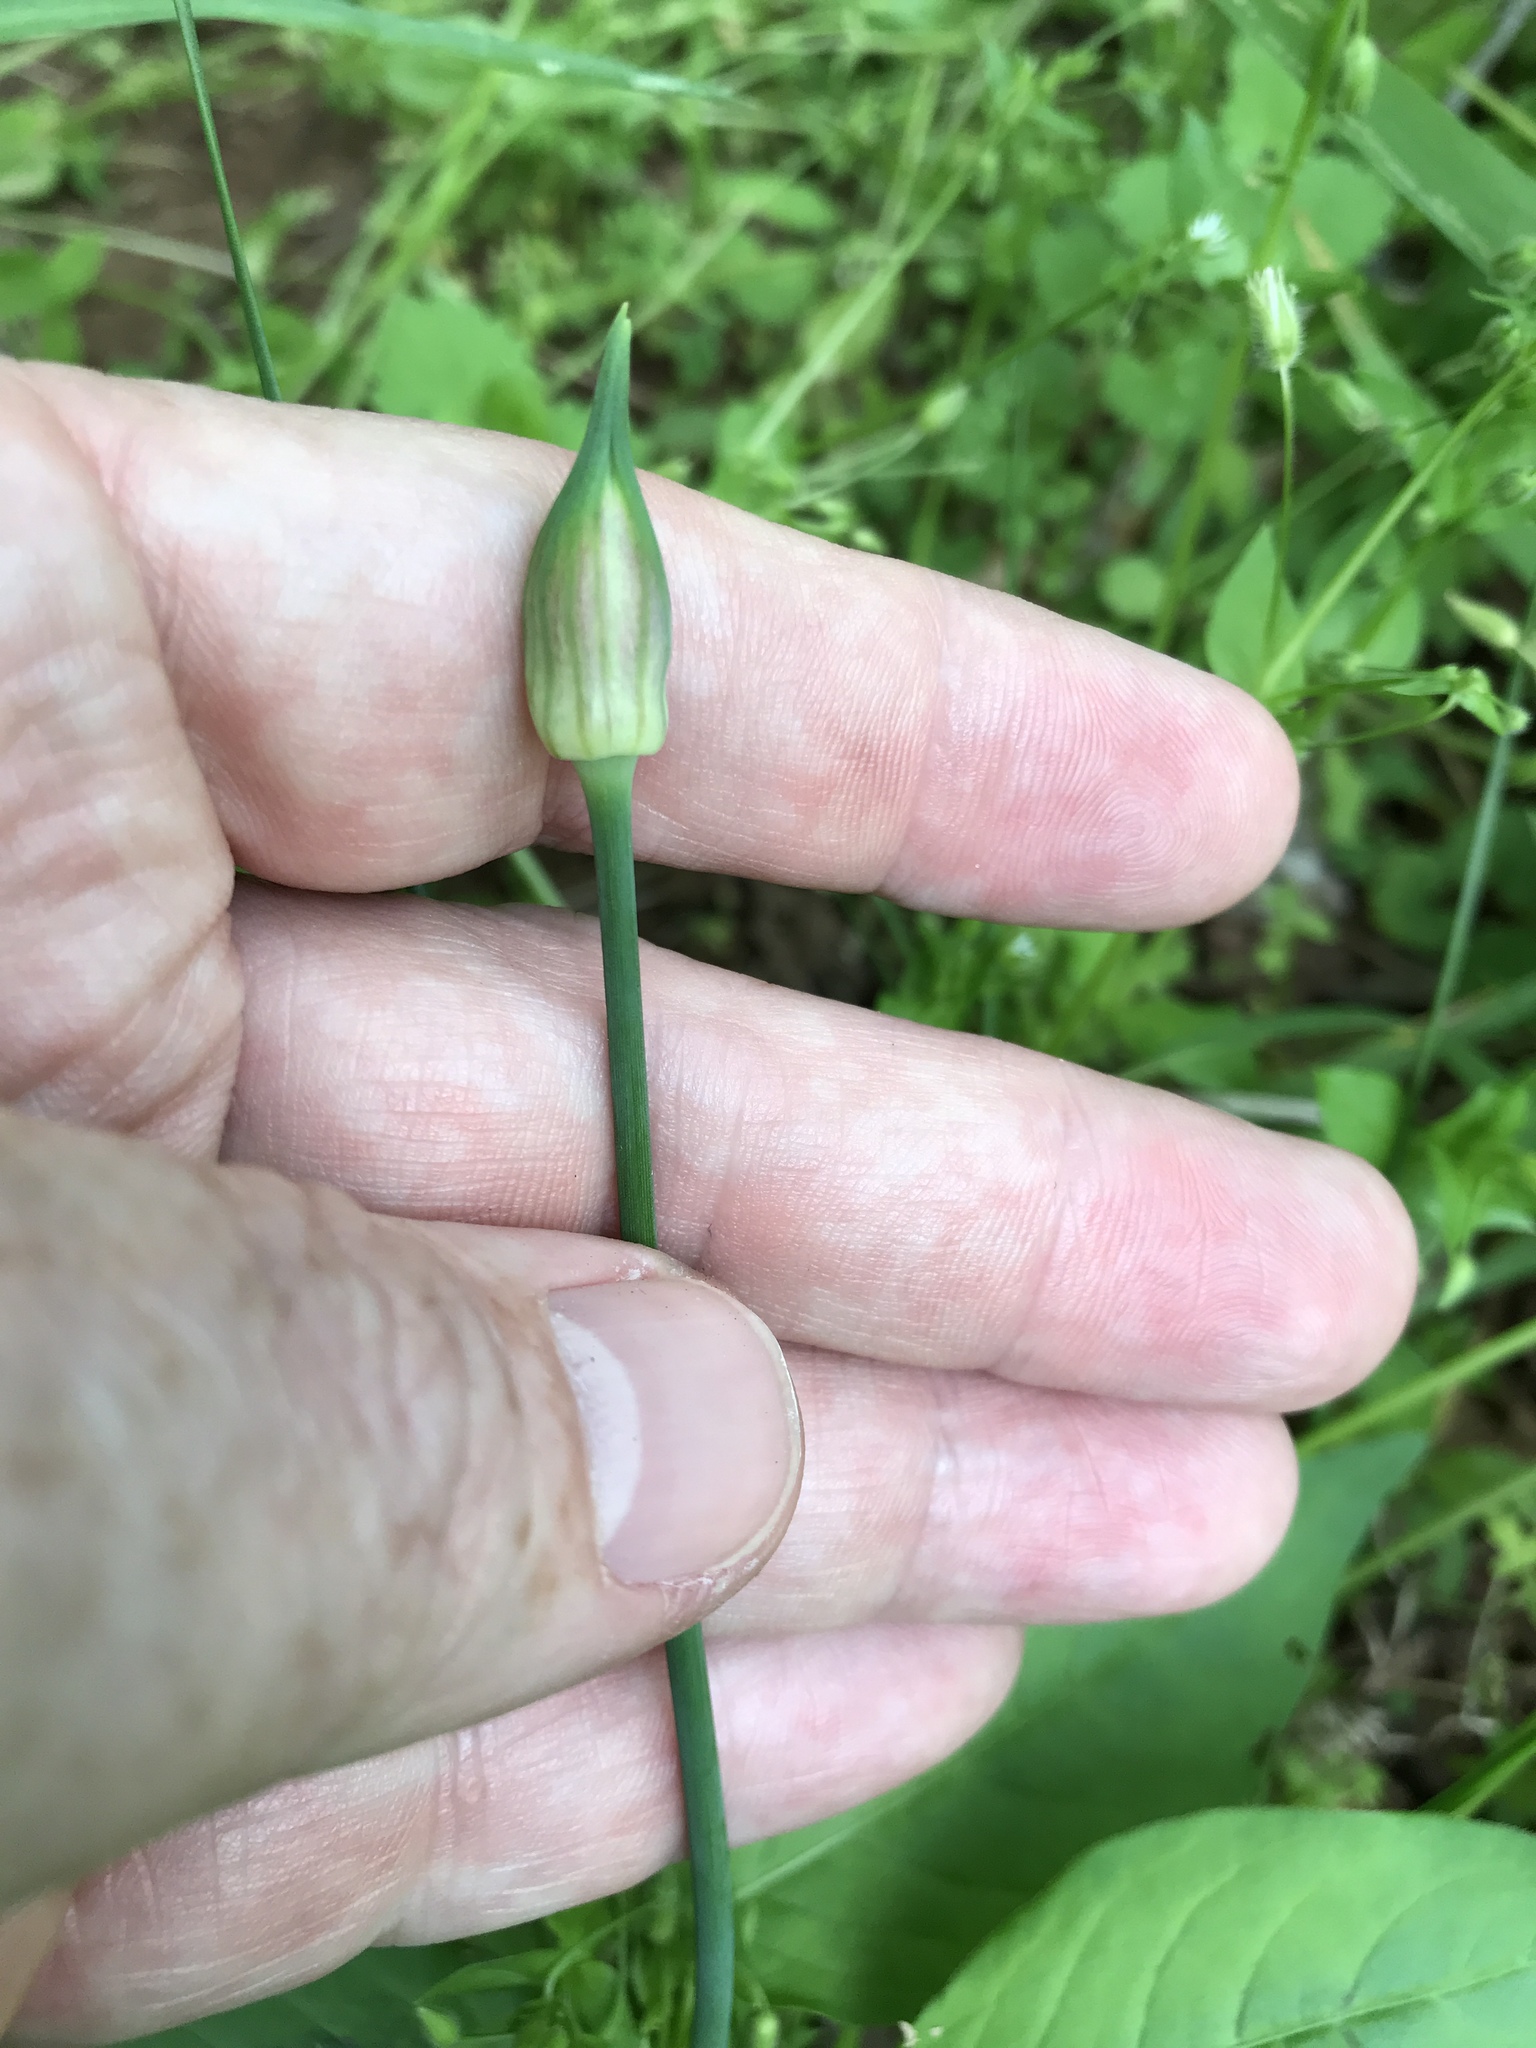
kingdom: Plantae
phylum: Tracheophyta
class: Liliopsida
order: Asparagales
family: Amaryllidaceae
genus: Allium
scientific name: Allium canadense
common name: Meadow garlic
